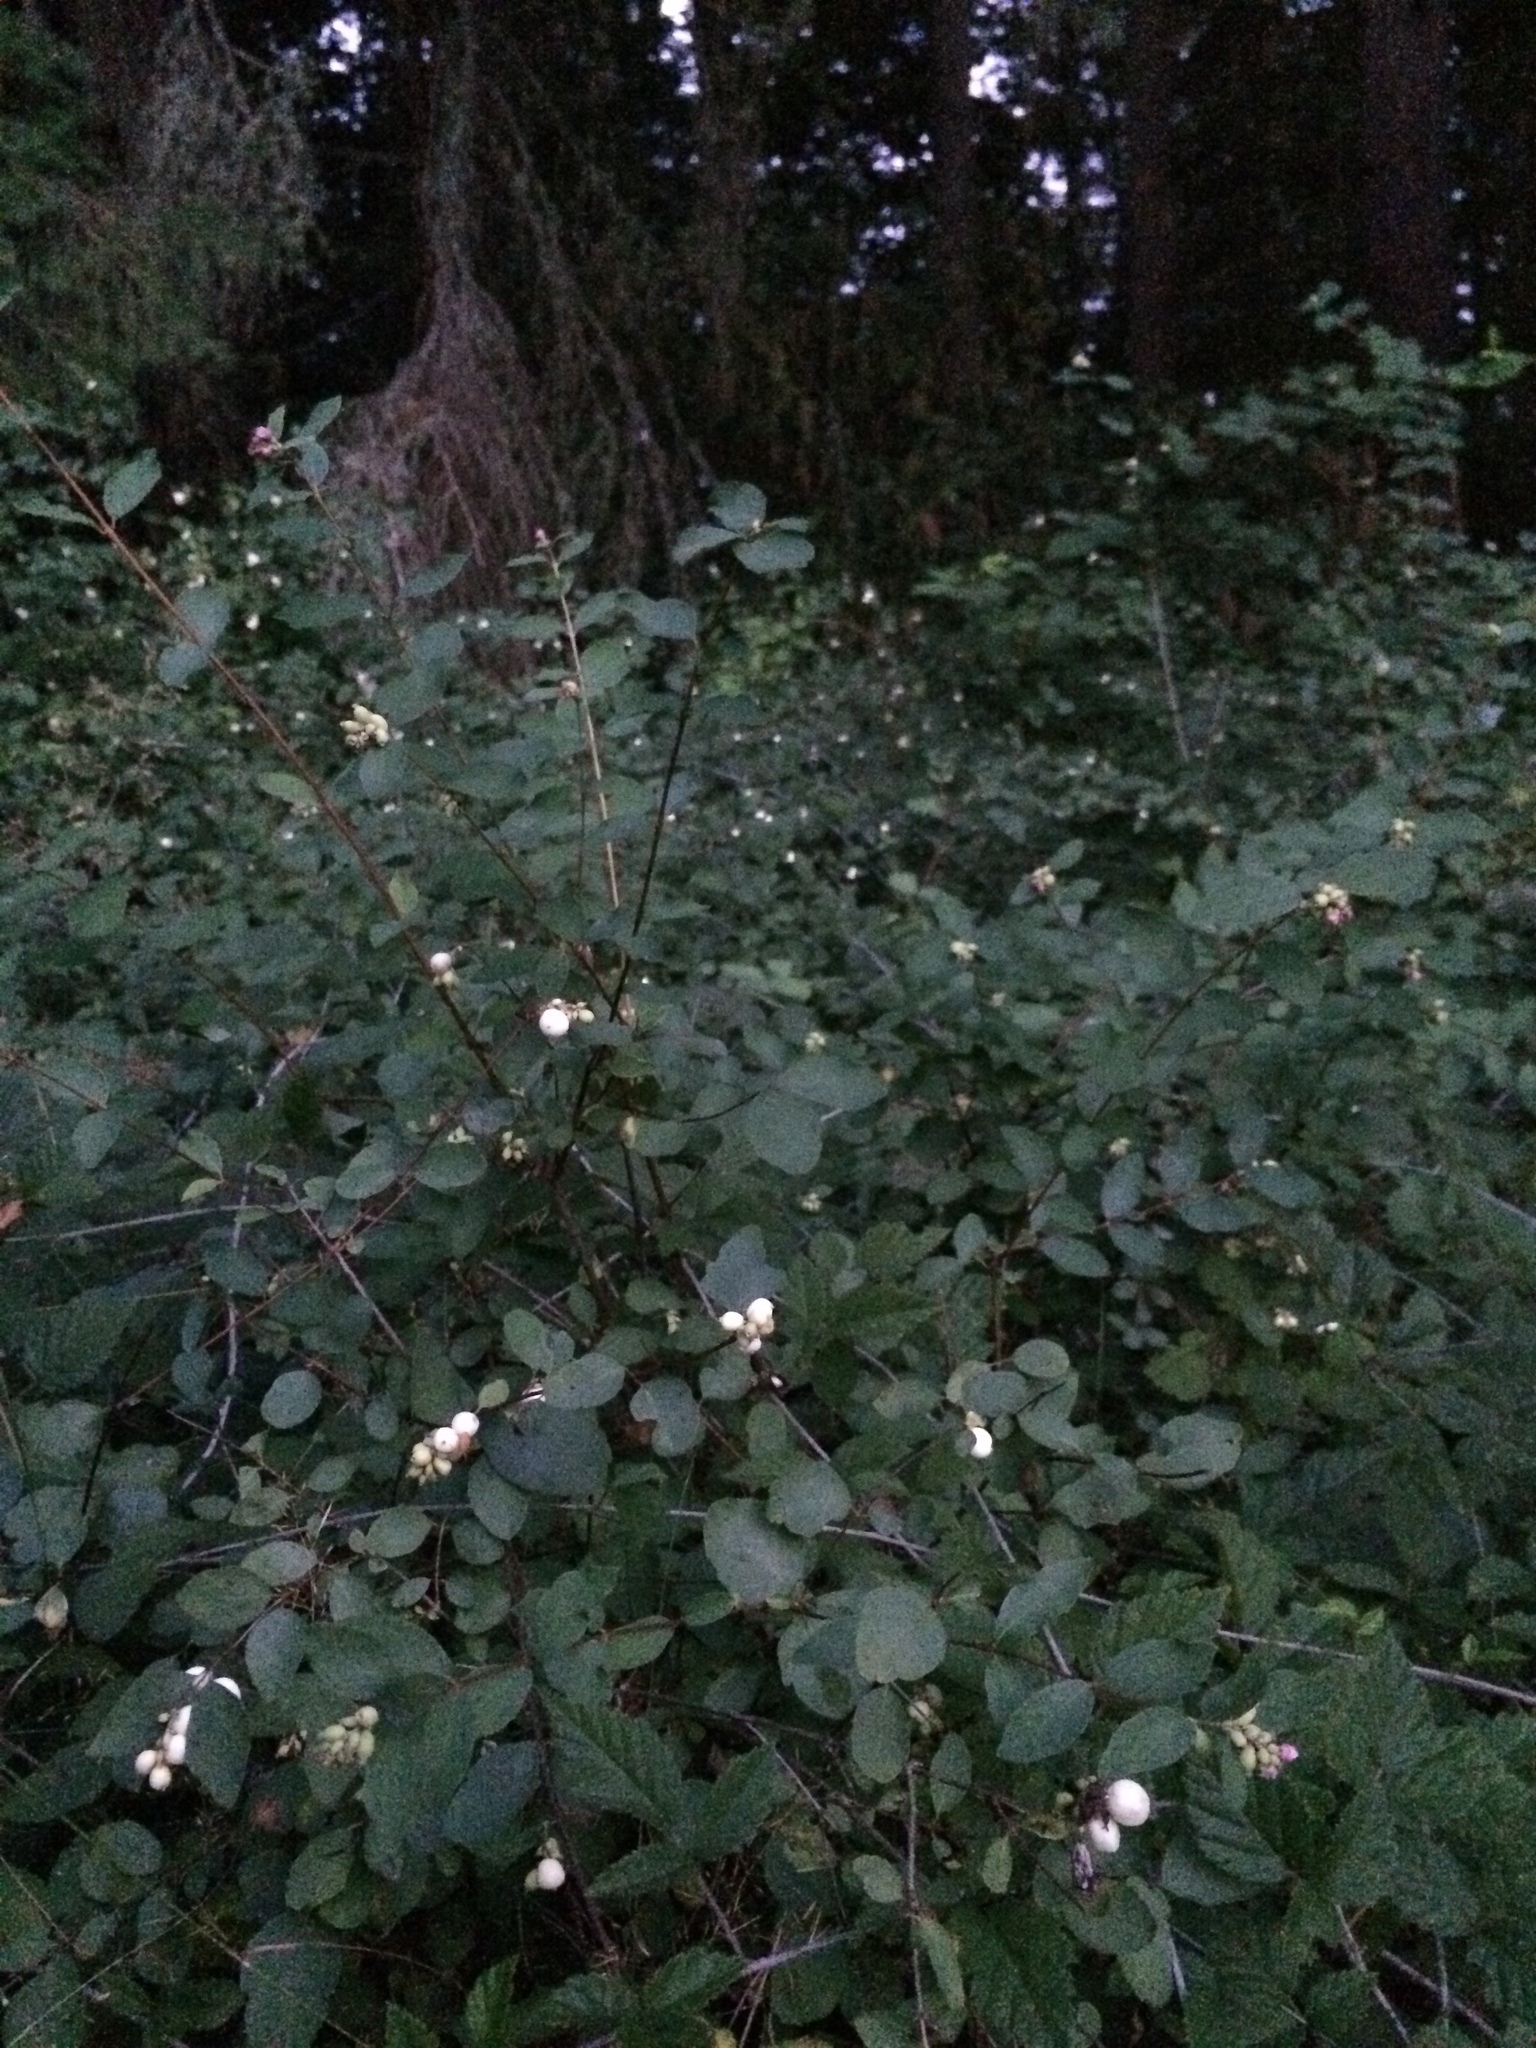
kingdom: Plantae
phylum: Tracheophyta
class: Magnoliopsida
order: Dipsacales
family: Caprifoliaceae
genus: Symphoricarpos
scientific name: Symphoricarpos albus
